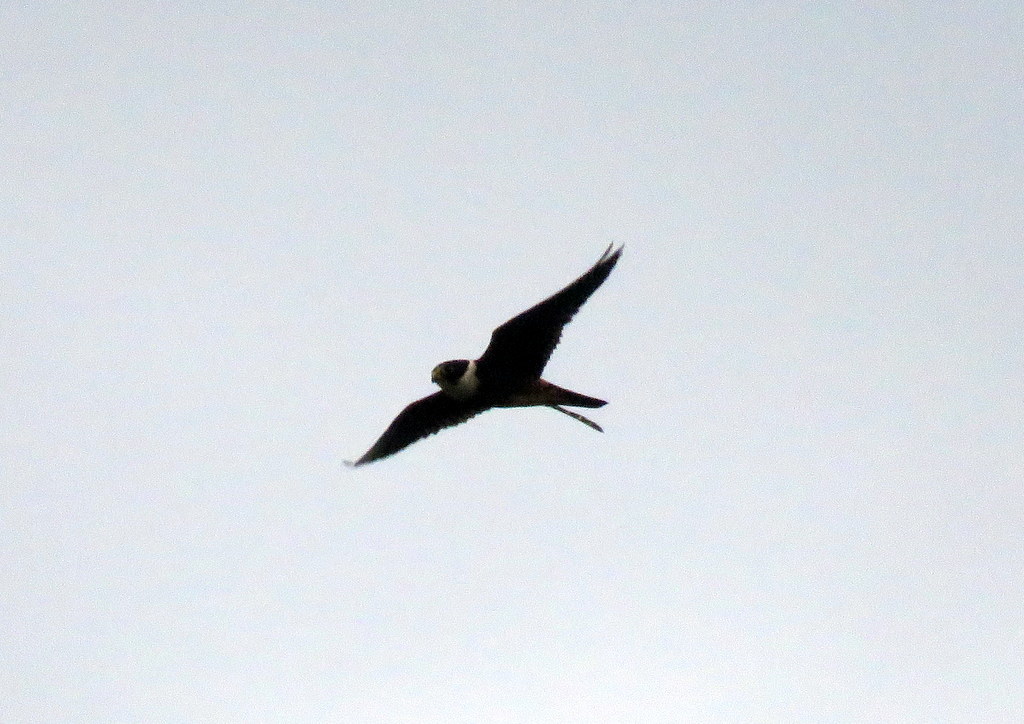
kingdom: Animalia
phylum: Chordata
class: Aves
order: Falconiformes
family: Falconidae
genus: Falco
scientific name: Falco rufigularis
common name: Bat falcon
